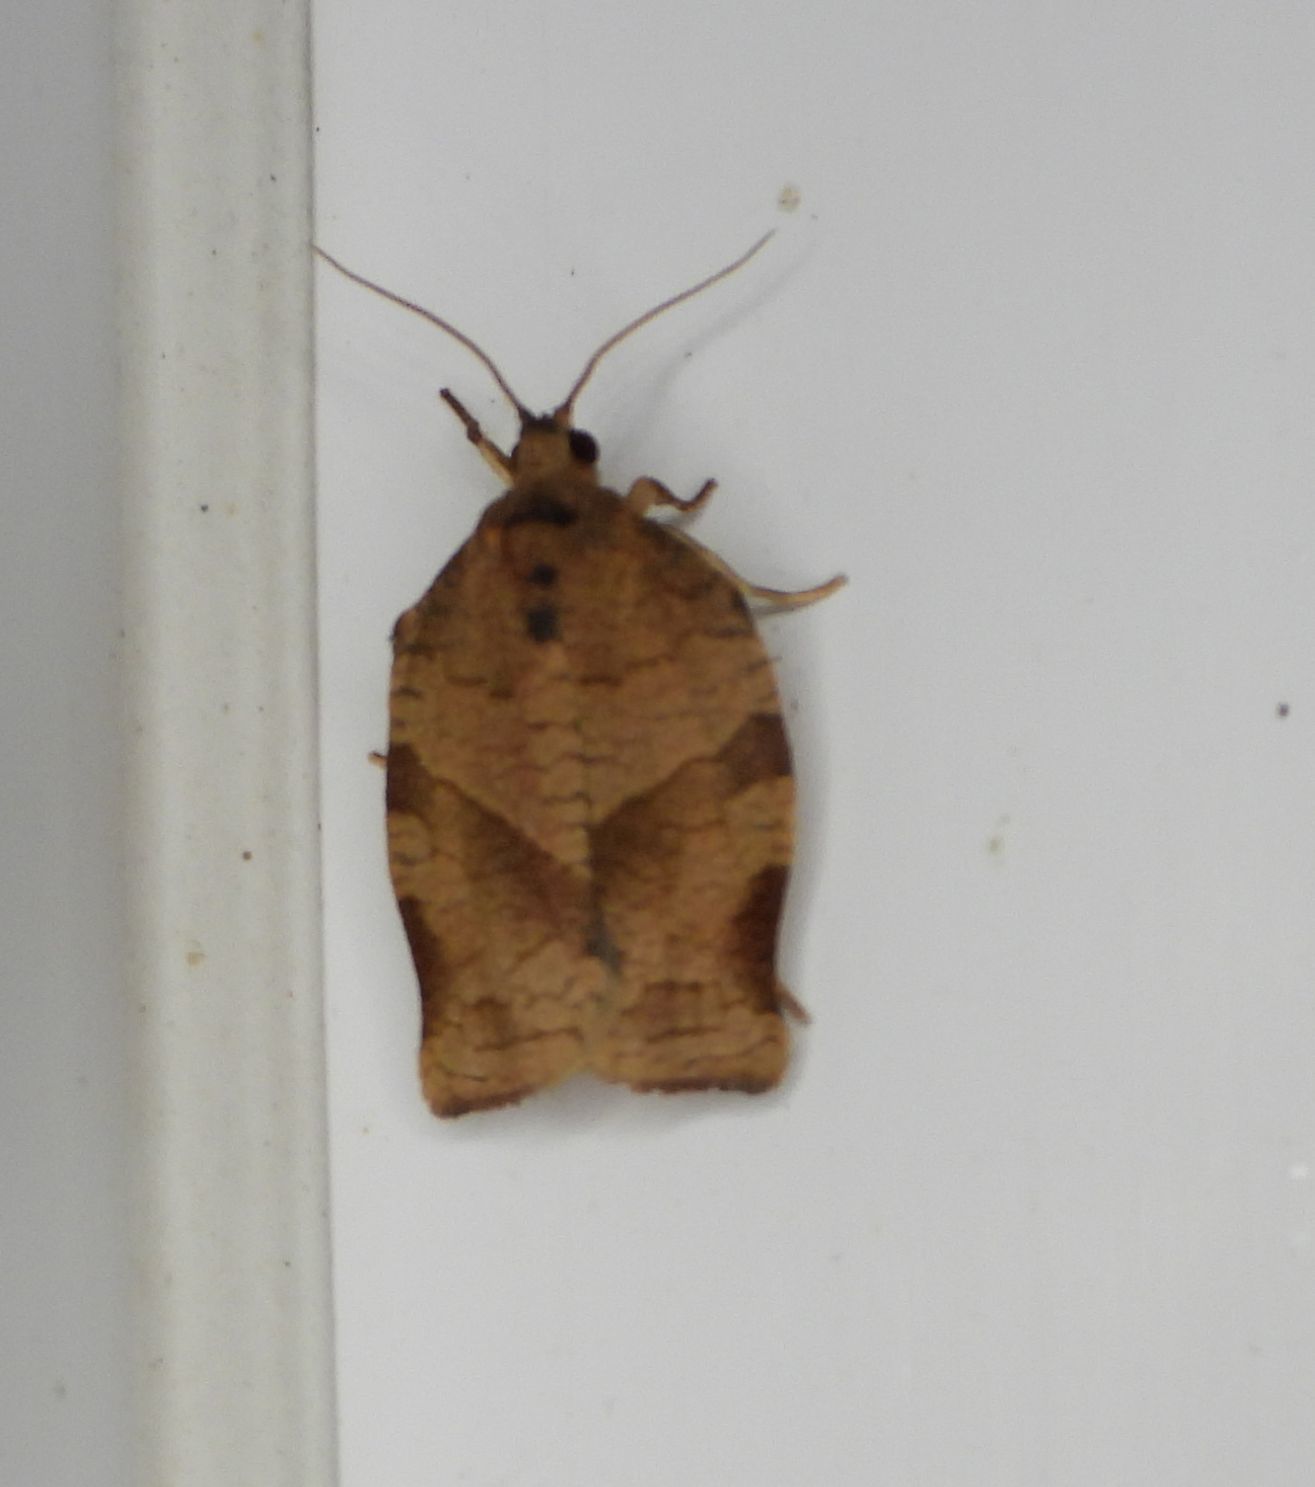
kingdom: Animalia
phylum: Arthropoda
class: Insecta
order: Lepidoptera
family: Tortricidae
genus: Choristoneura
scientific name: Choristoneura rosaceana
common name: Oblique-banded leafroller moth
